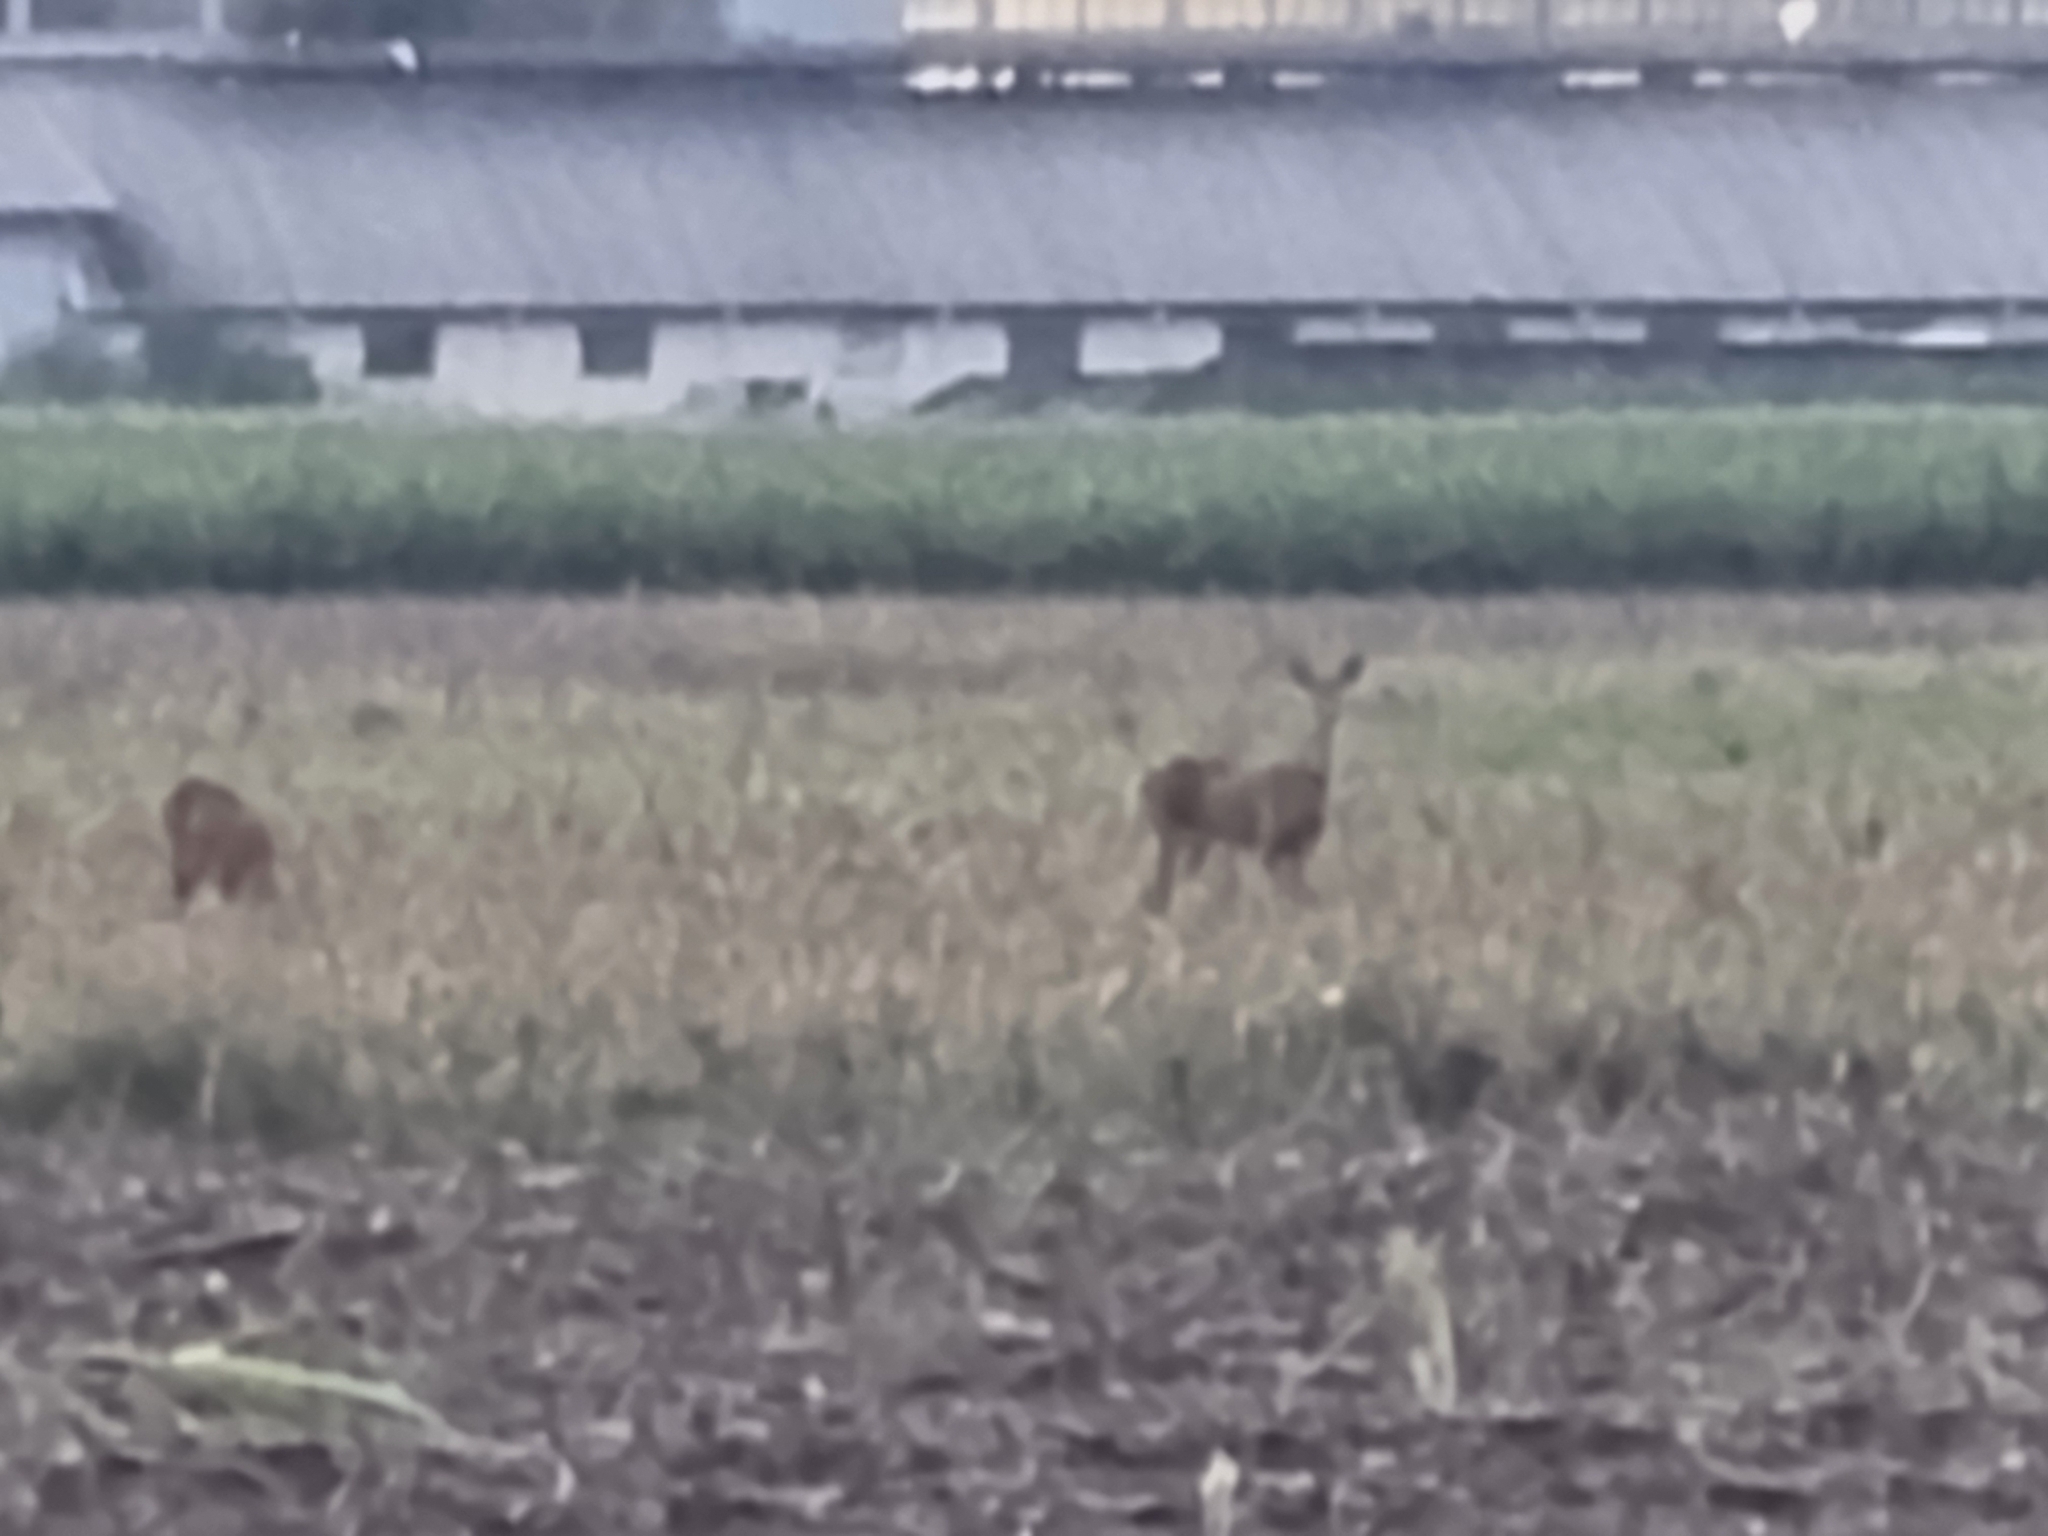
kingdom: Animalia
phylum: Chordata
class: Mammalia
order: Artiodactyla
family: Cervidae
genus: Capreolus
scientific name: Capreolus capreolus
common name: Western roe deer
